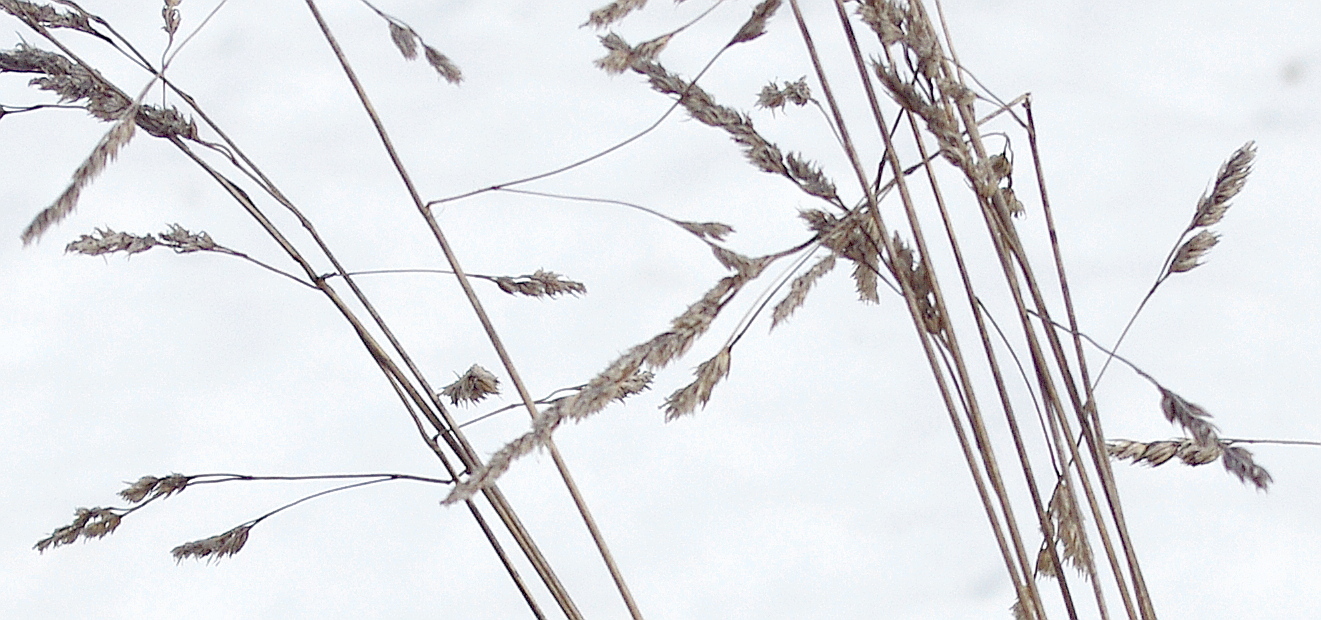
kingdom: Plantae
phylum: Tracheophyta
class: Liliopsida
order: Poales
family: Poaceae
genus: Dactylis
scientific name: Dactylis glomerata
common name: Orchardgrass
